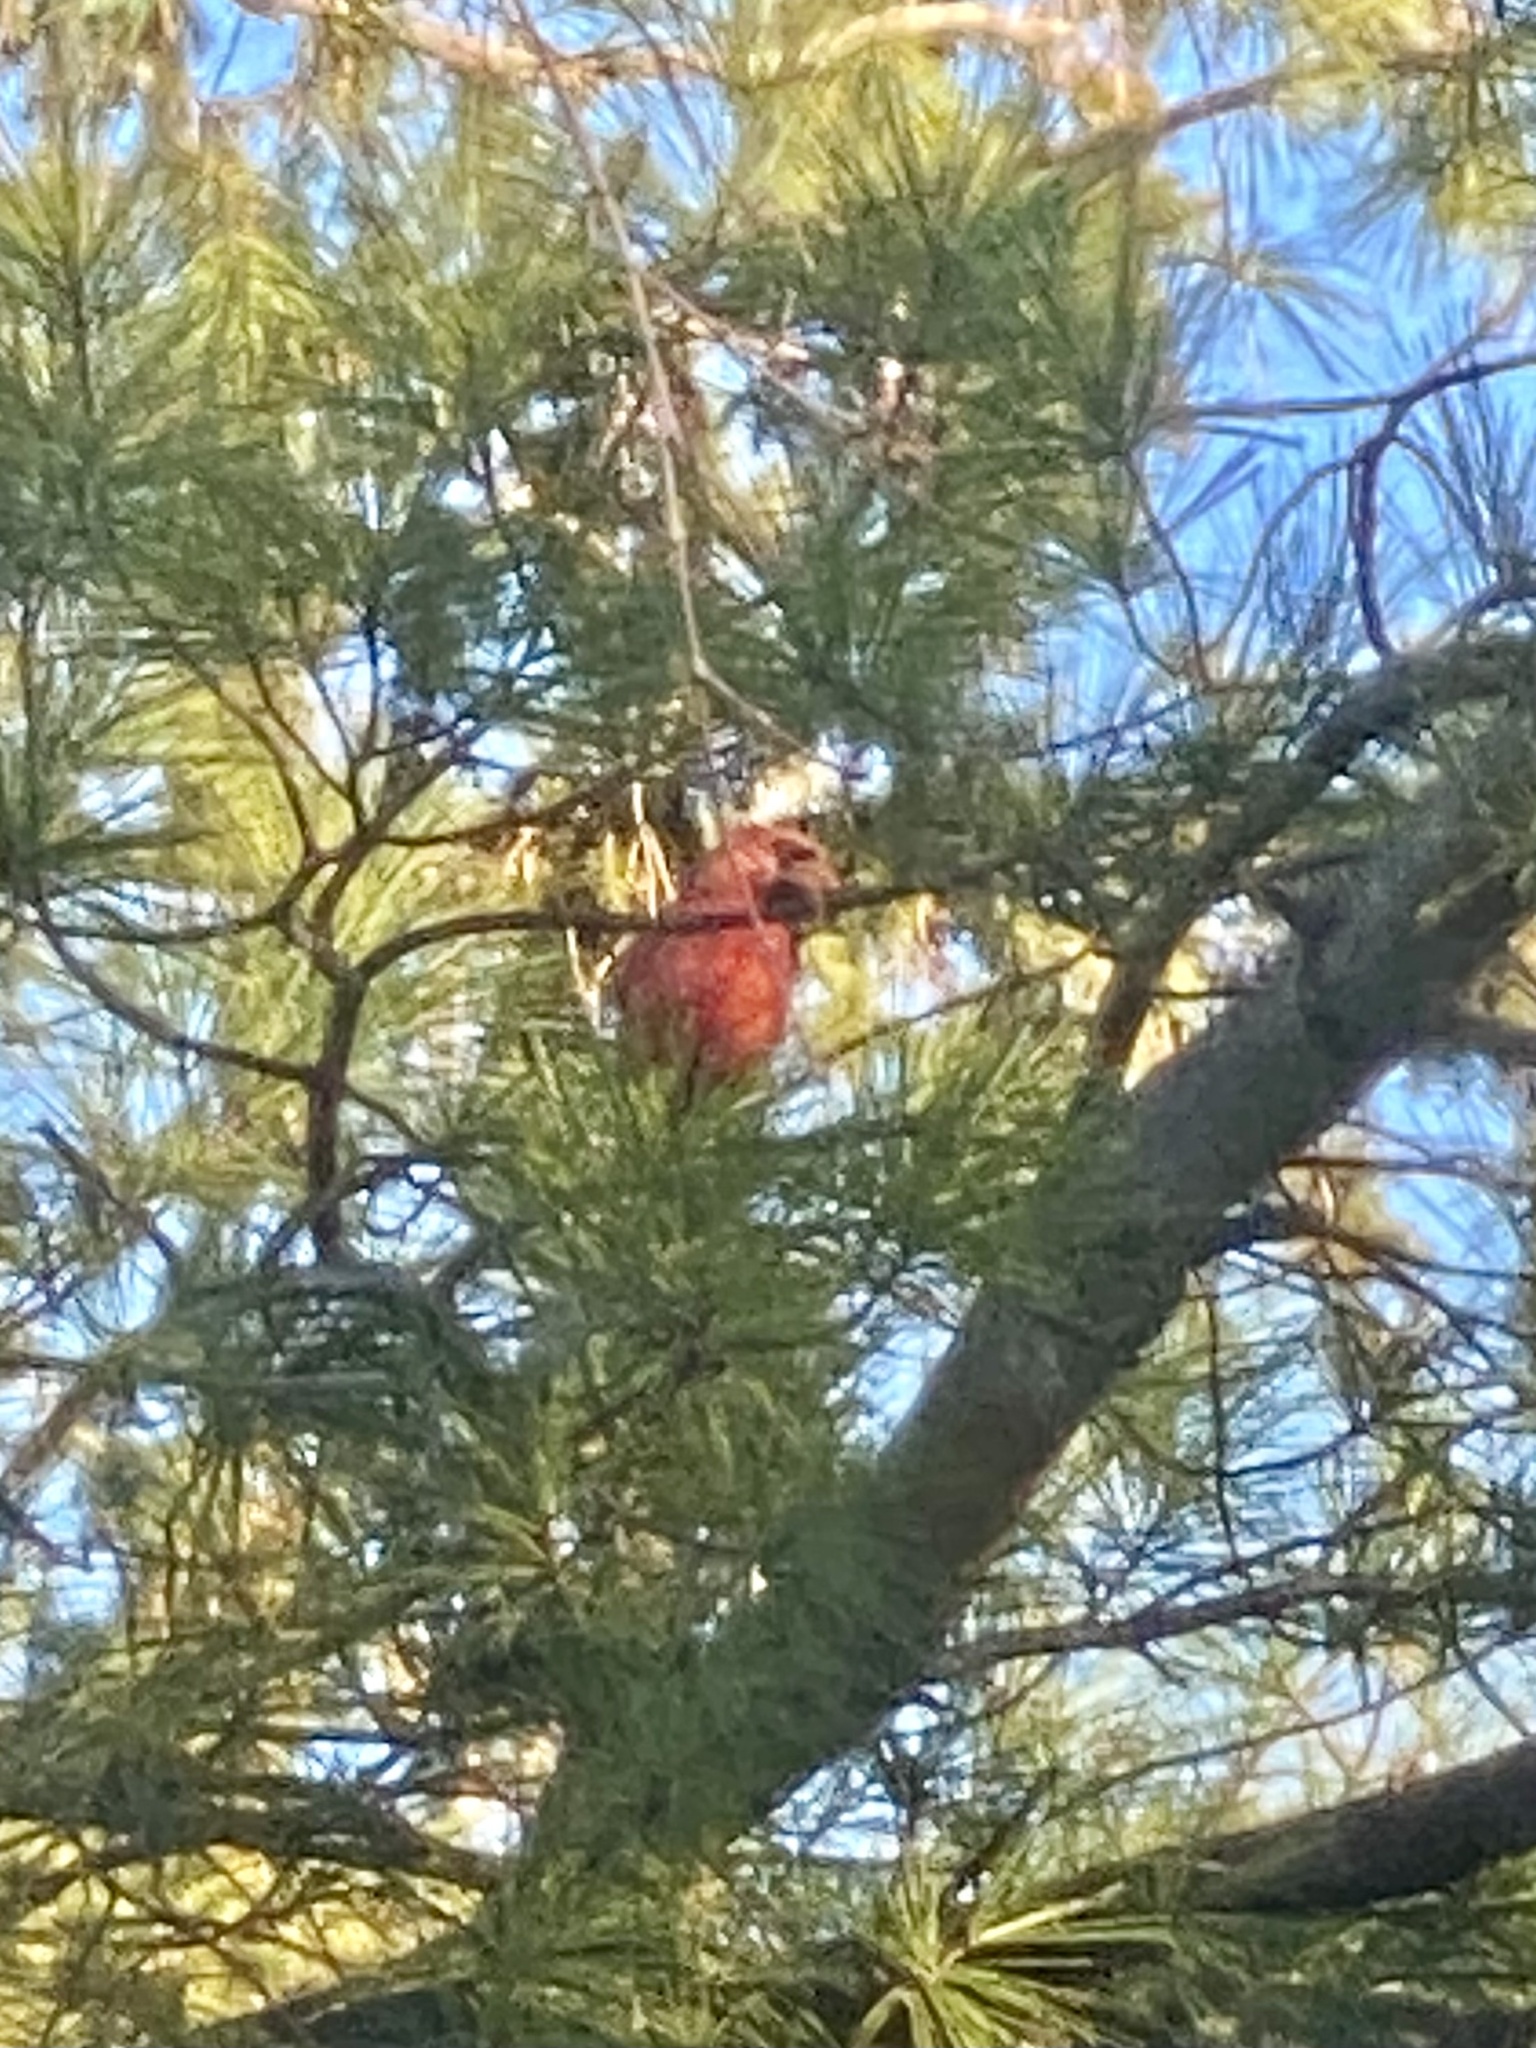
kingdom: Animalia
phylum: Chordata
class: Aves
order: Passeriformes
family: Cardinalidae
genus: Cardinalis
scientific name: Cardinalis cardinalis
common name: Northern cardinal
